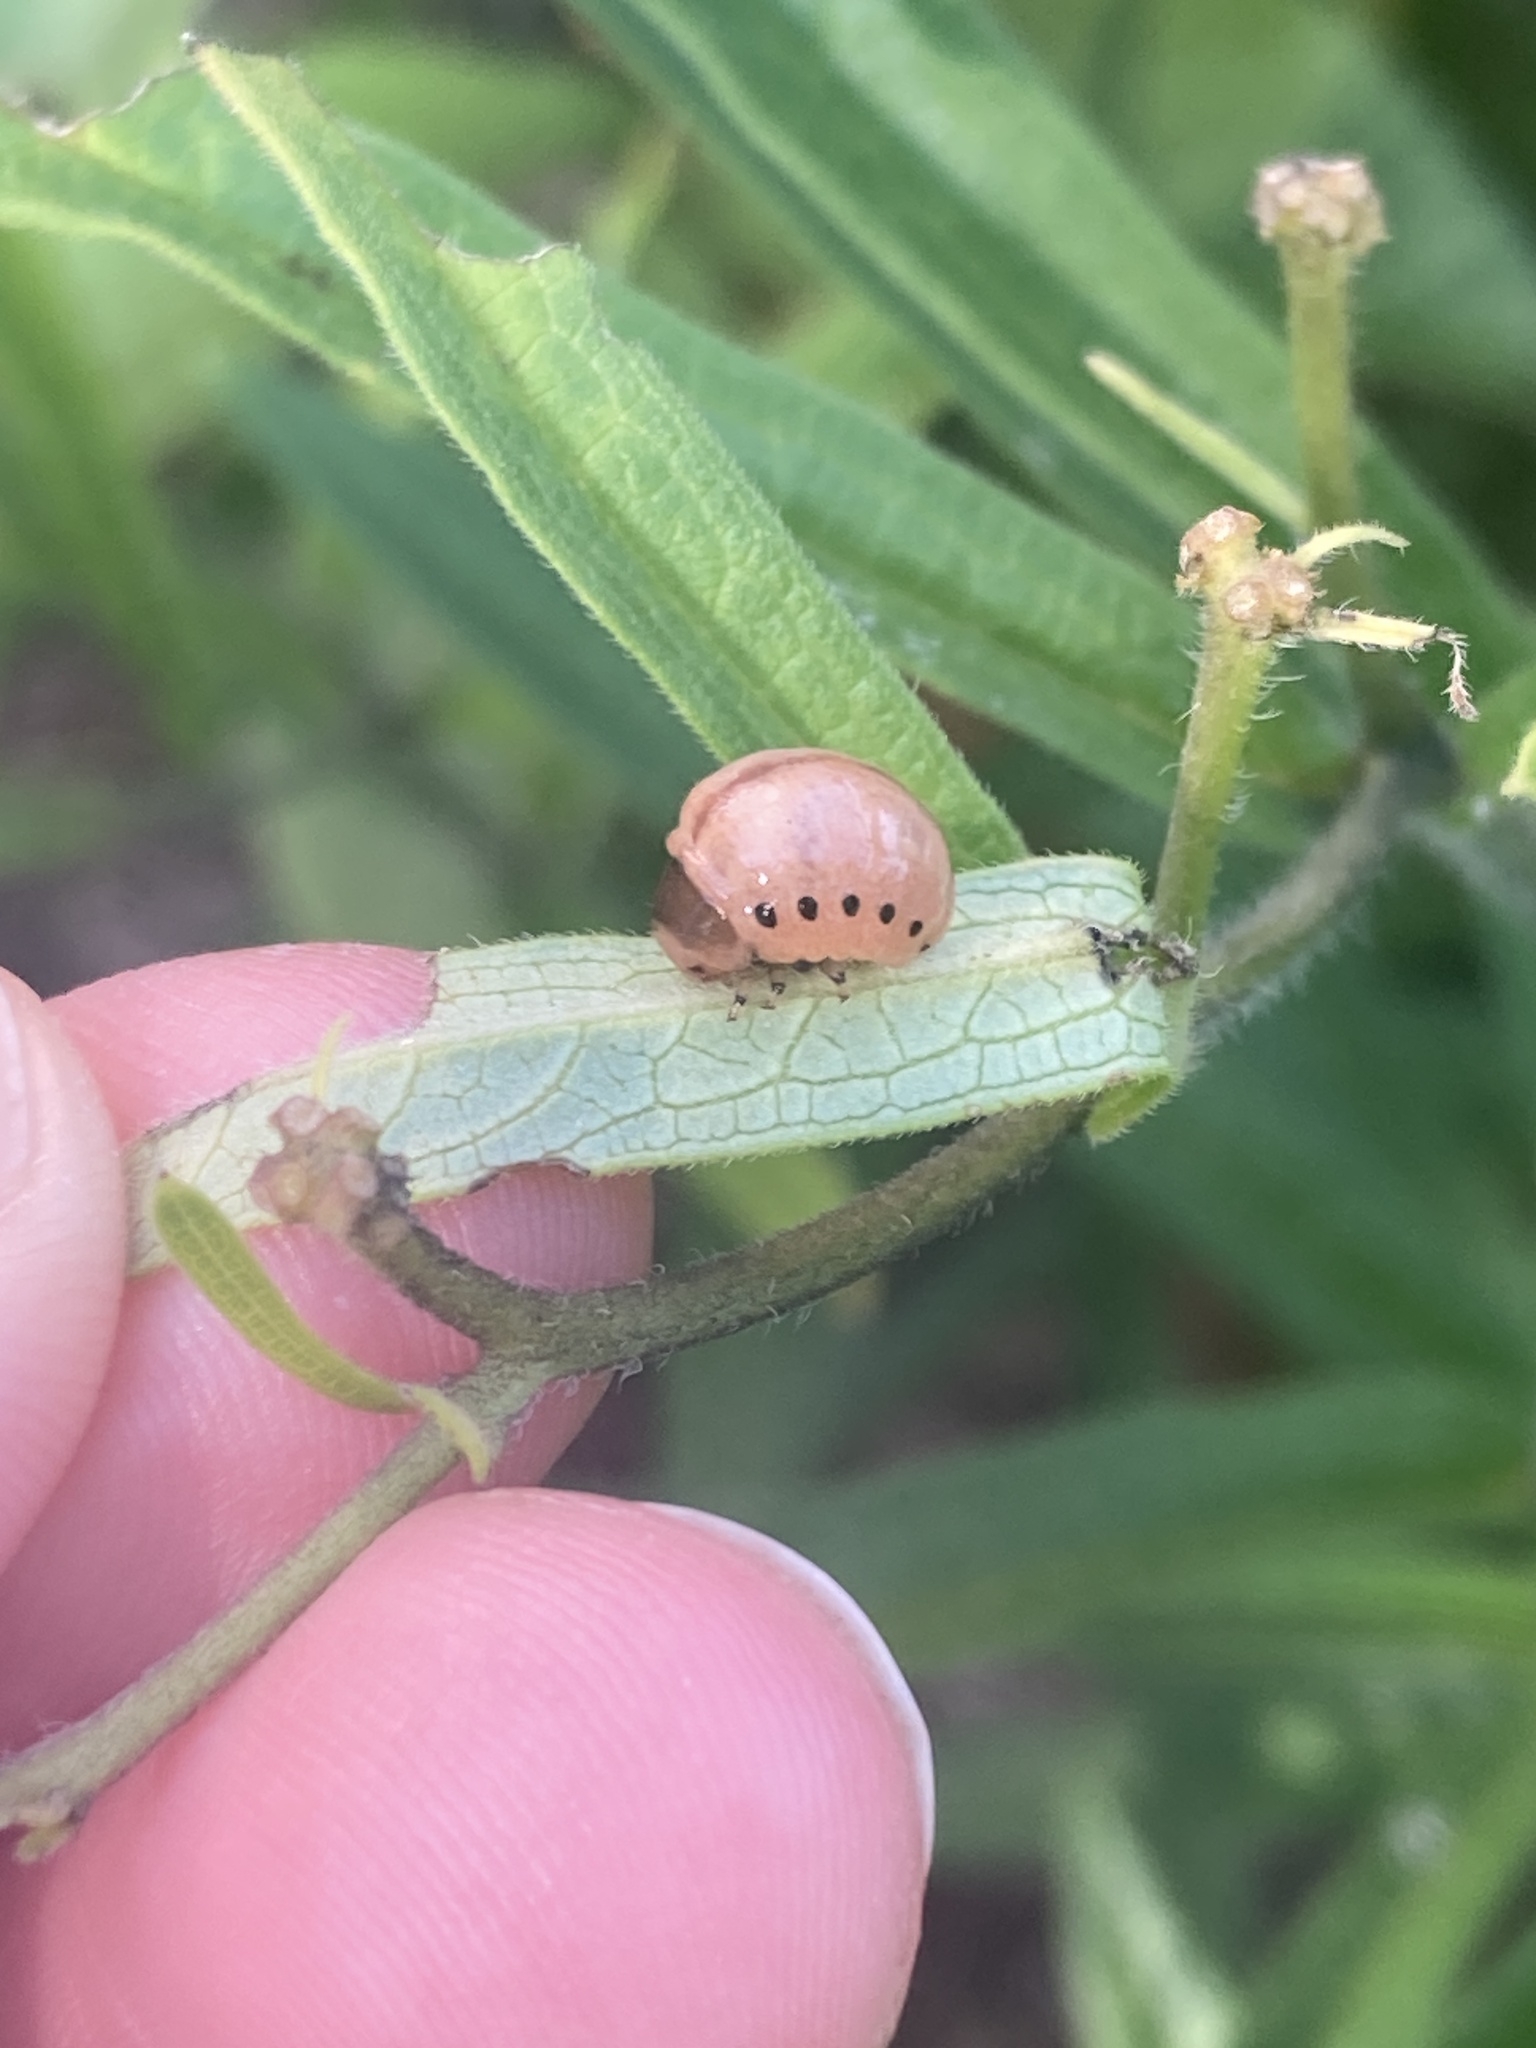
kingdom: Animalia
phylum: Arthropoda
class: Insecta
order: Coleoptera
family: Chrysomelidae
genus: Labidomera
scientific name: Labidomera clivicollis
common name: Swamp milkweed leaf beetle
